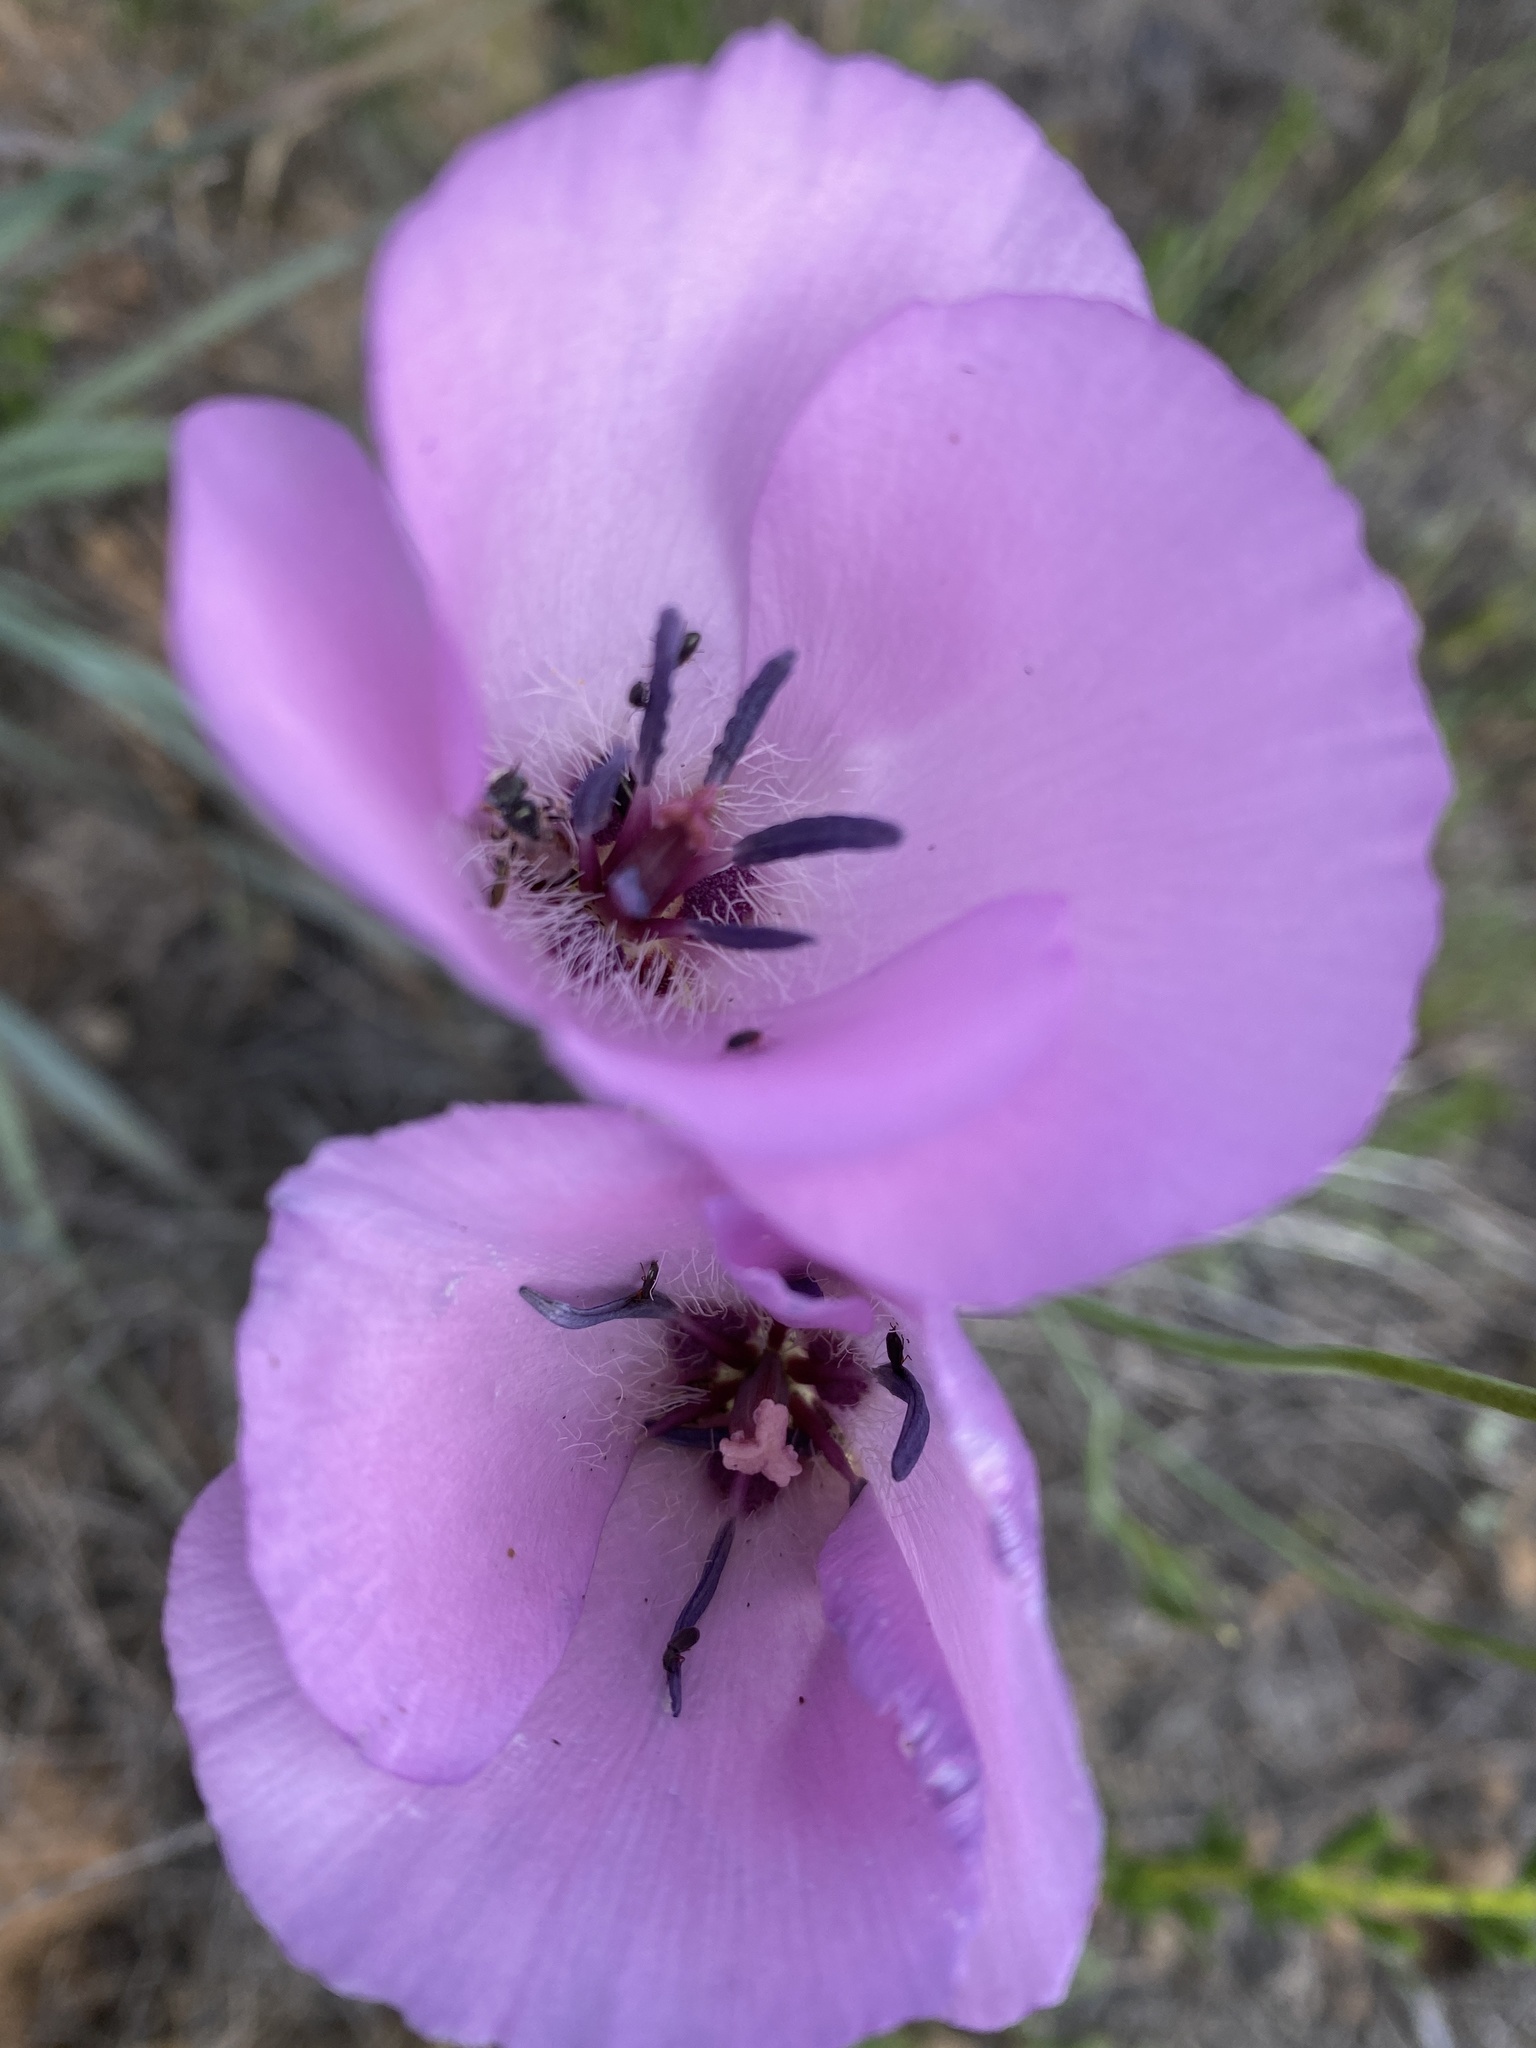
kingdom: Plantae
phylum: Tracheophyta
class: Liliopsida
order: Liliales
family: Liliaceae
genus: Calochortus
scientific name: Calochortus splendens
